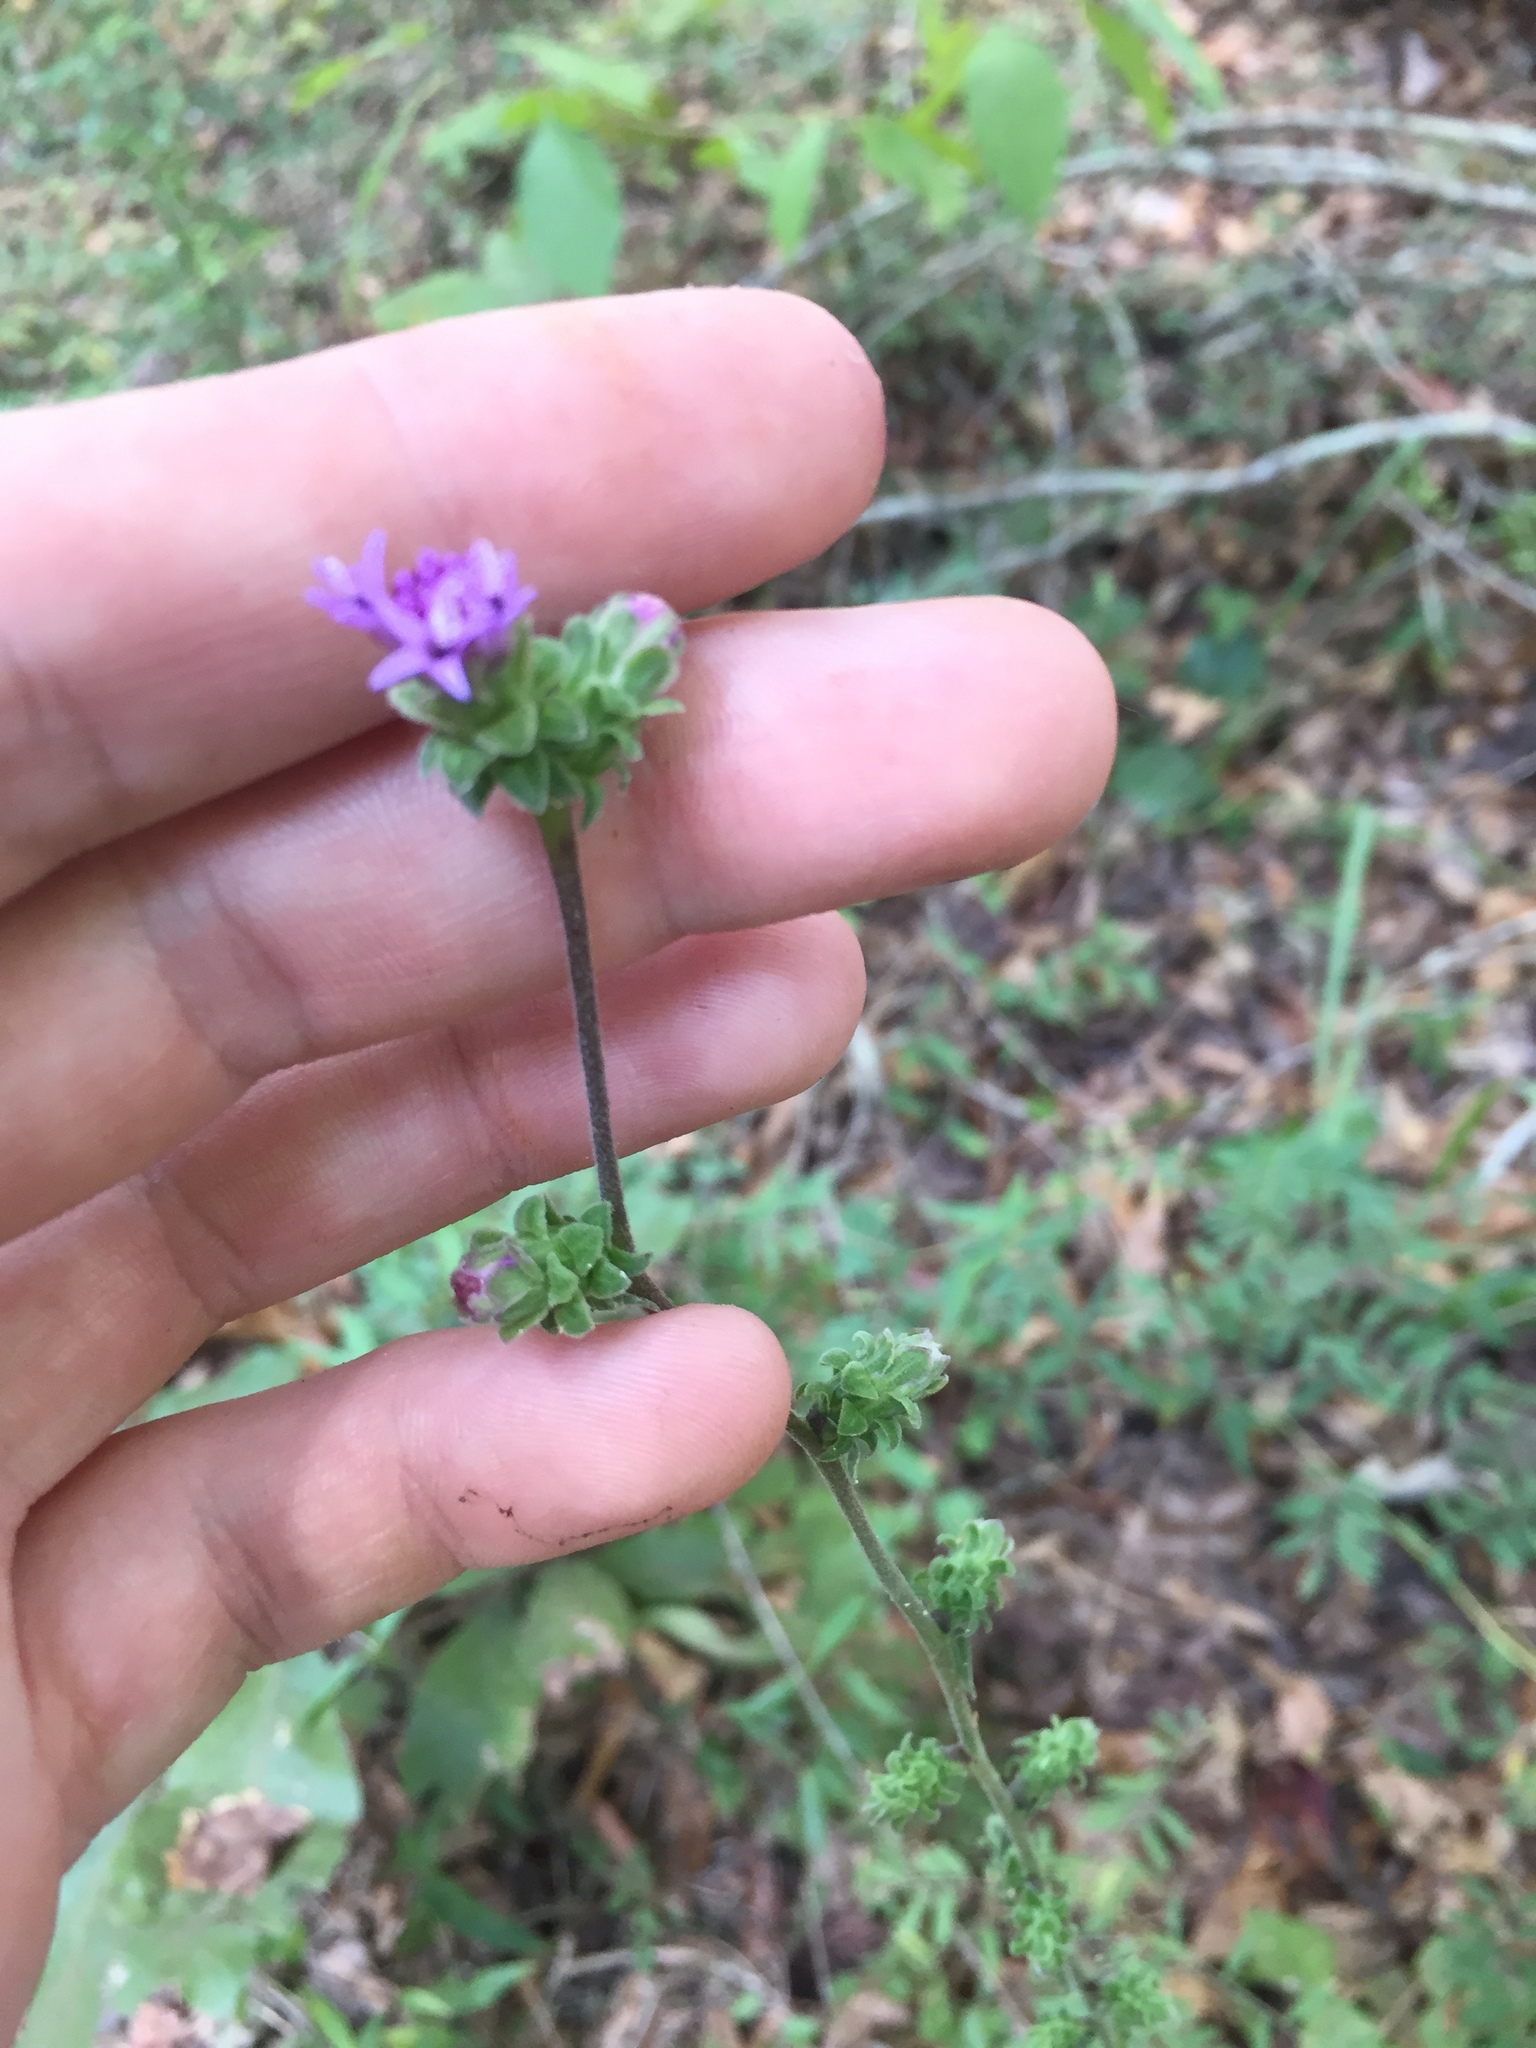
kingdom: Plantae
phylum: Tracheophyta
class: Magnoliopsida
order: Asterales
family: Asteraceae
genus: Liatris
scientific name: Liatris squarrulosa
